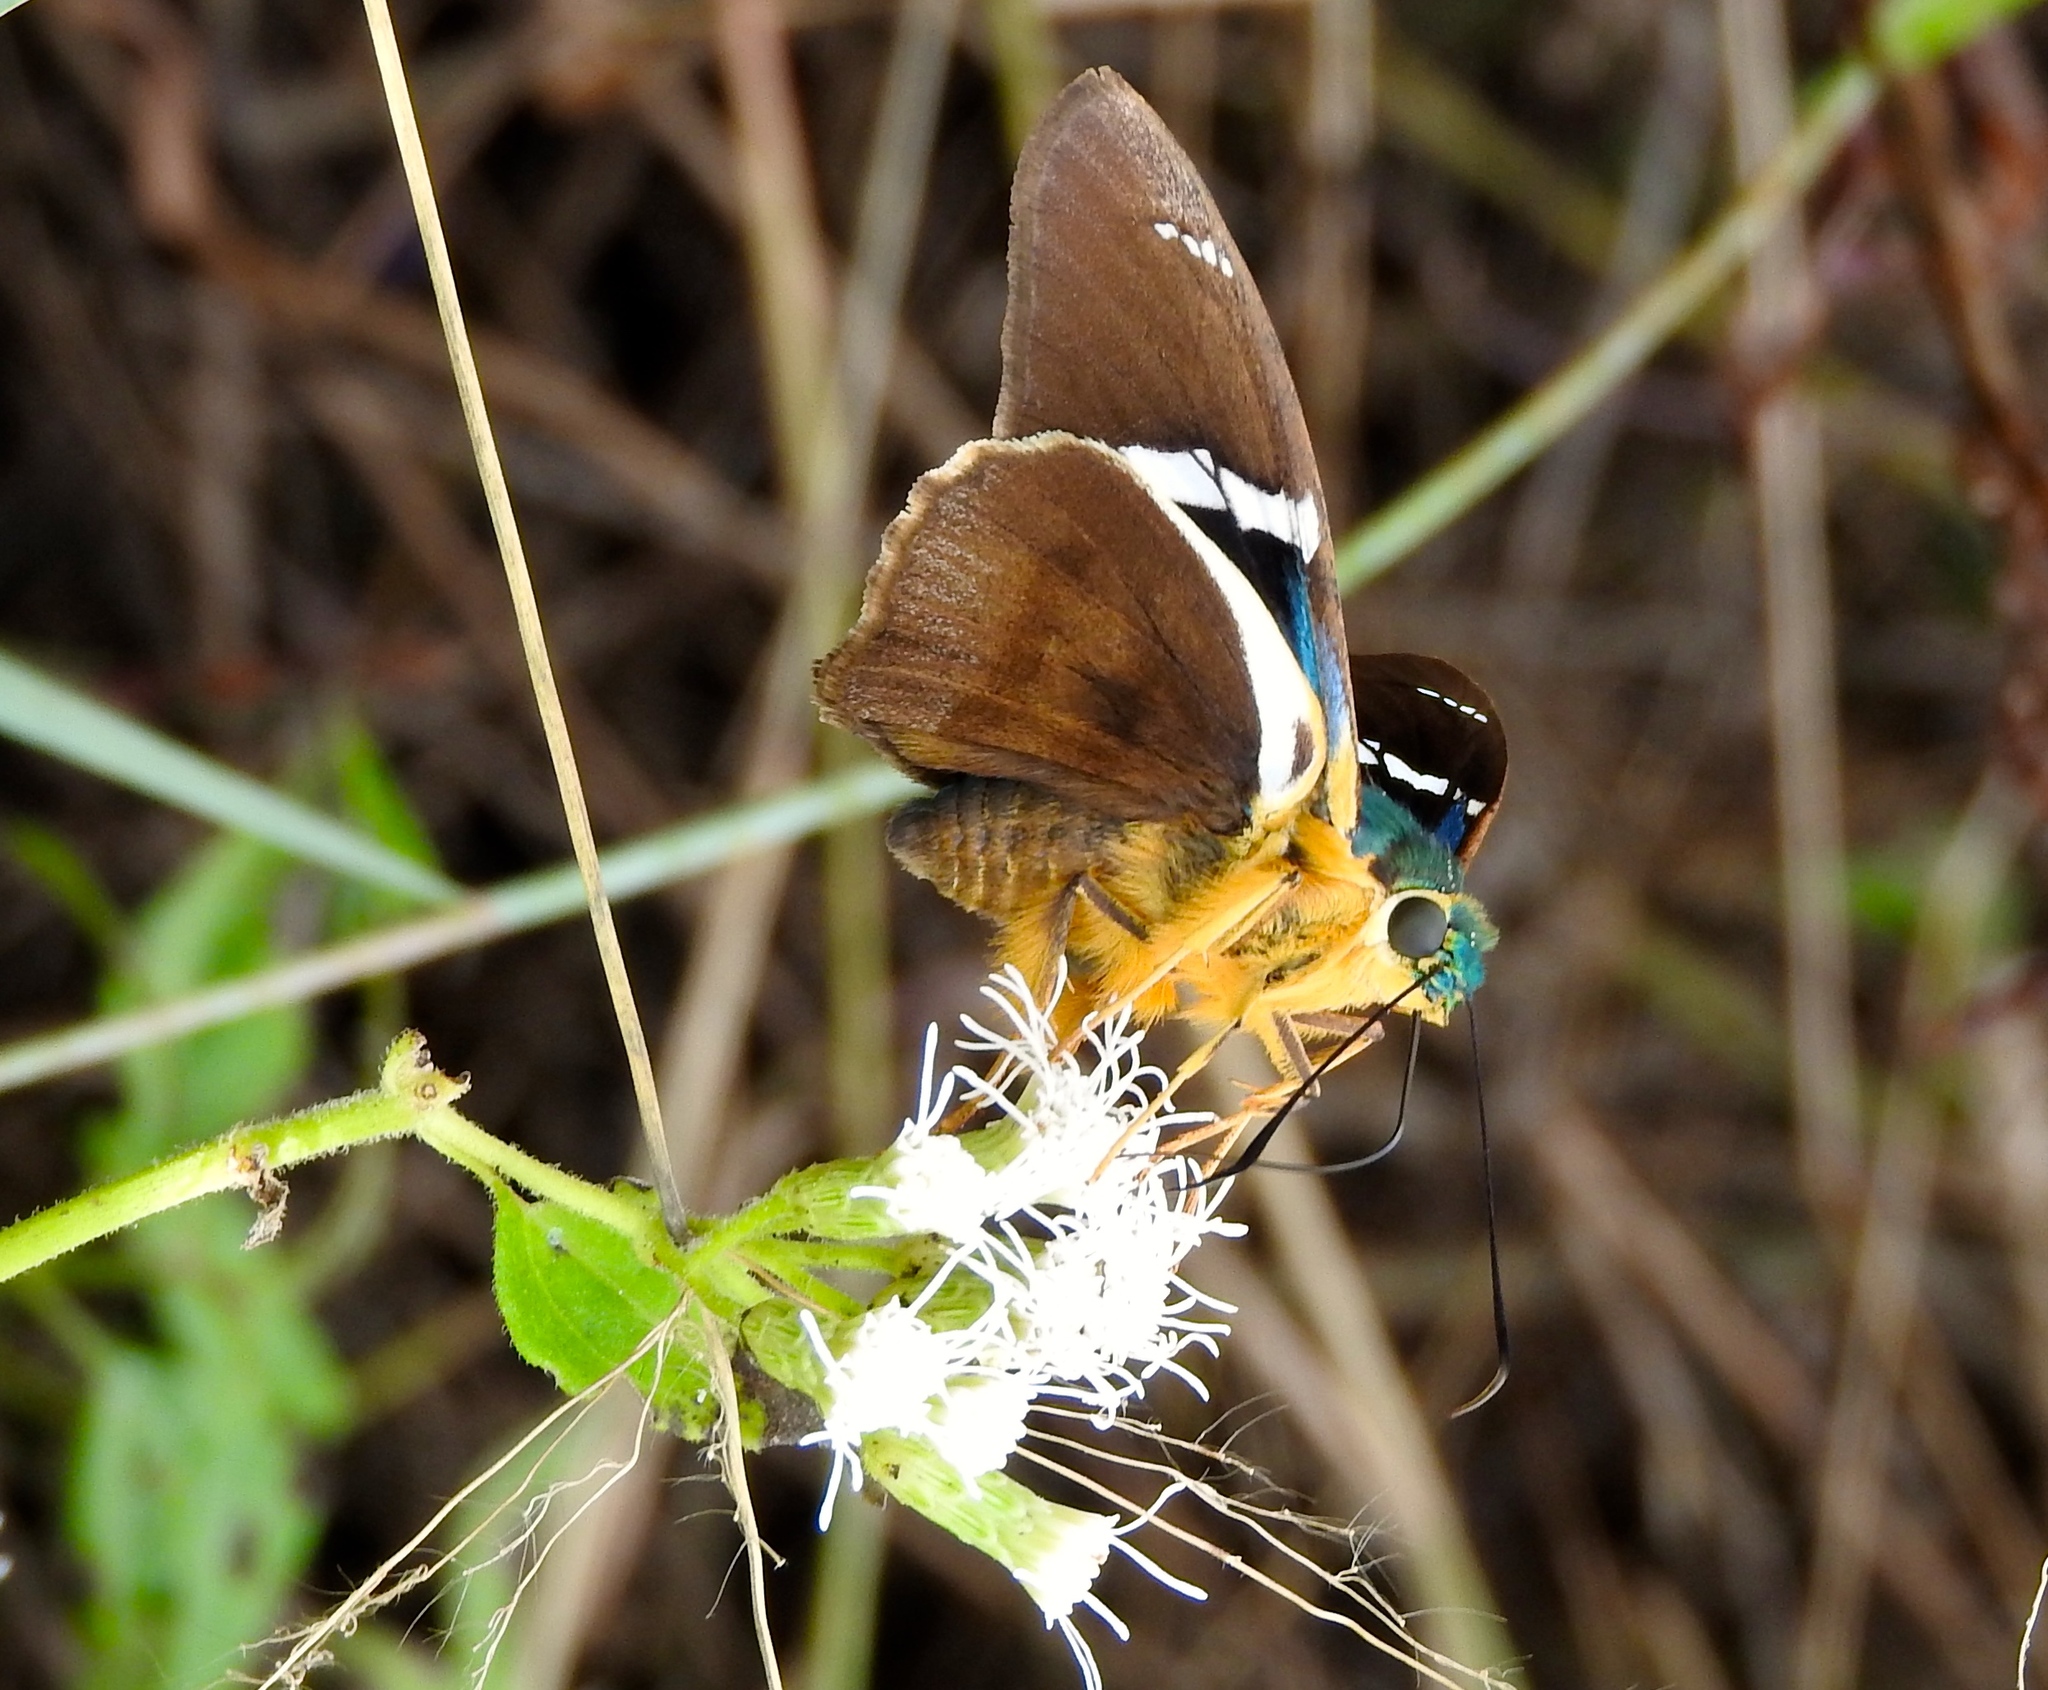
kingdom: Animalia
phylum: Arthropoda
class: Insecta
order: Lepidoptera
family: Hesperiidae
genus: Astraptes
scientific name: Astraptes fulgerator
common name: Two-barred flasher
